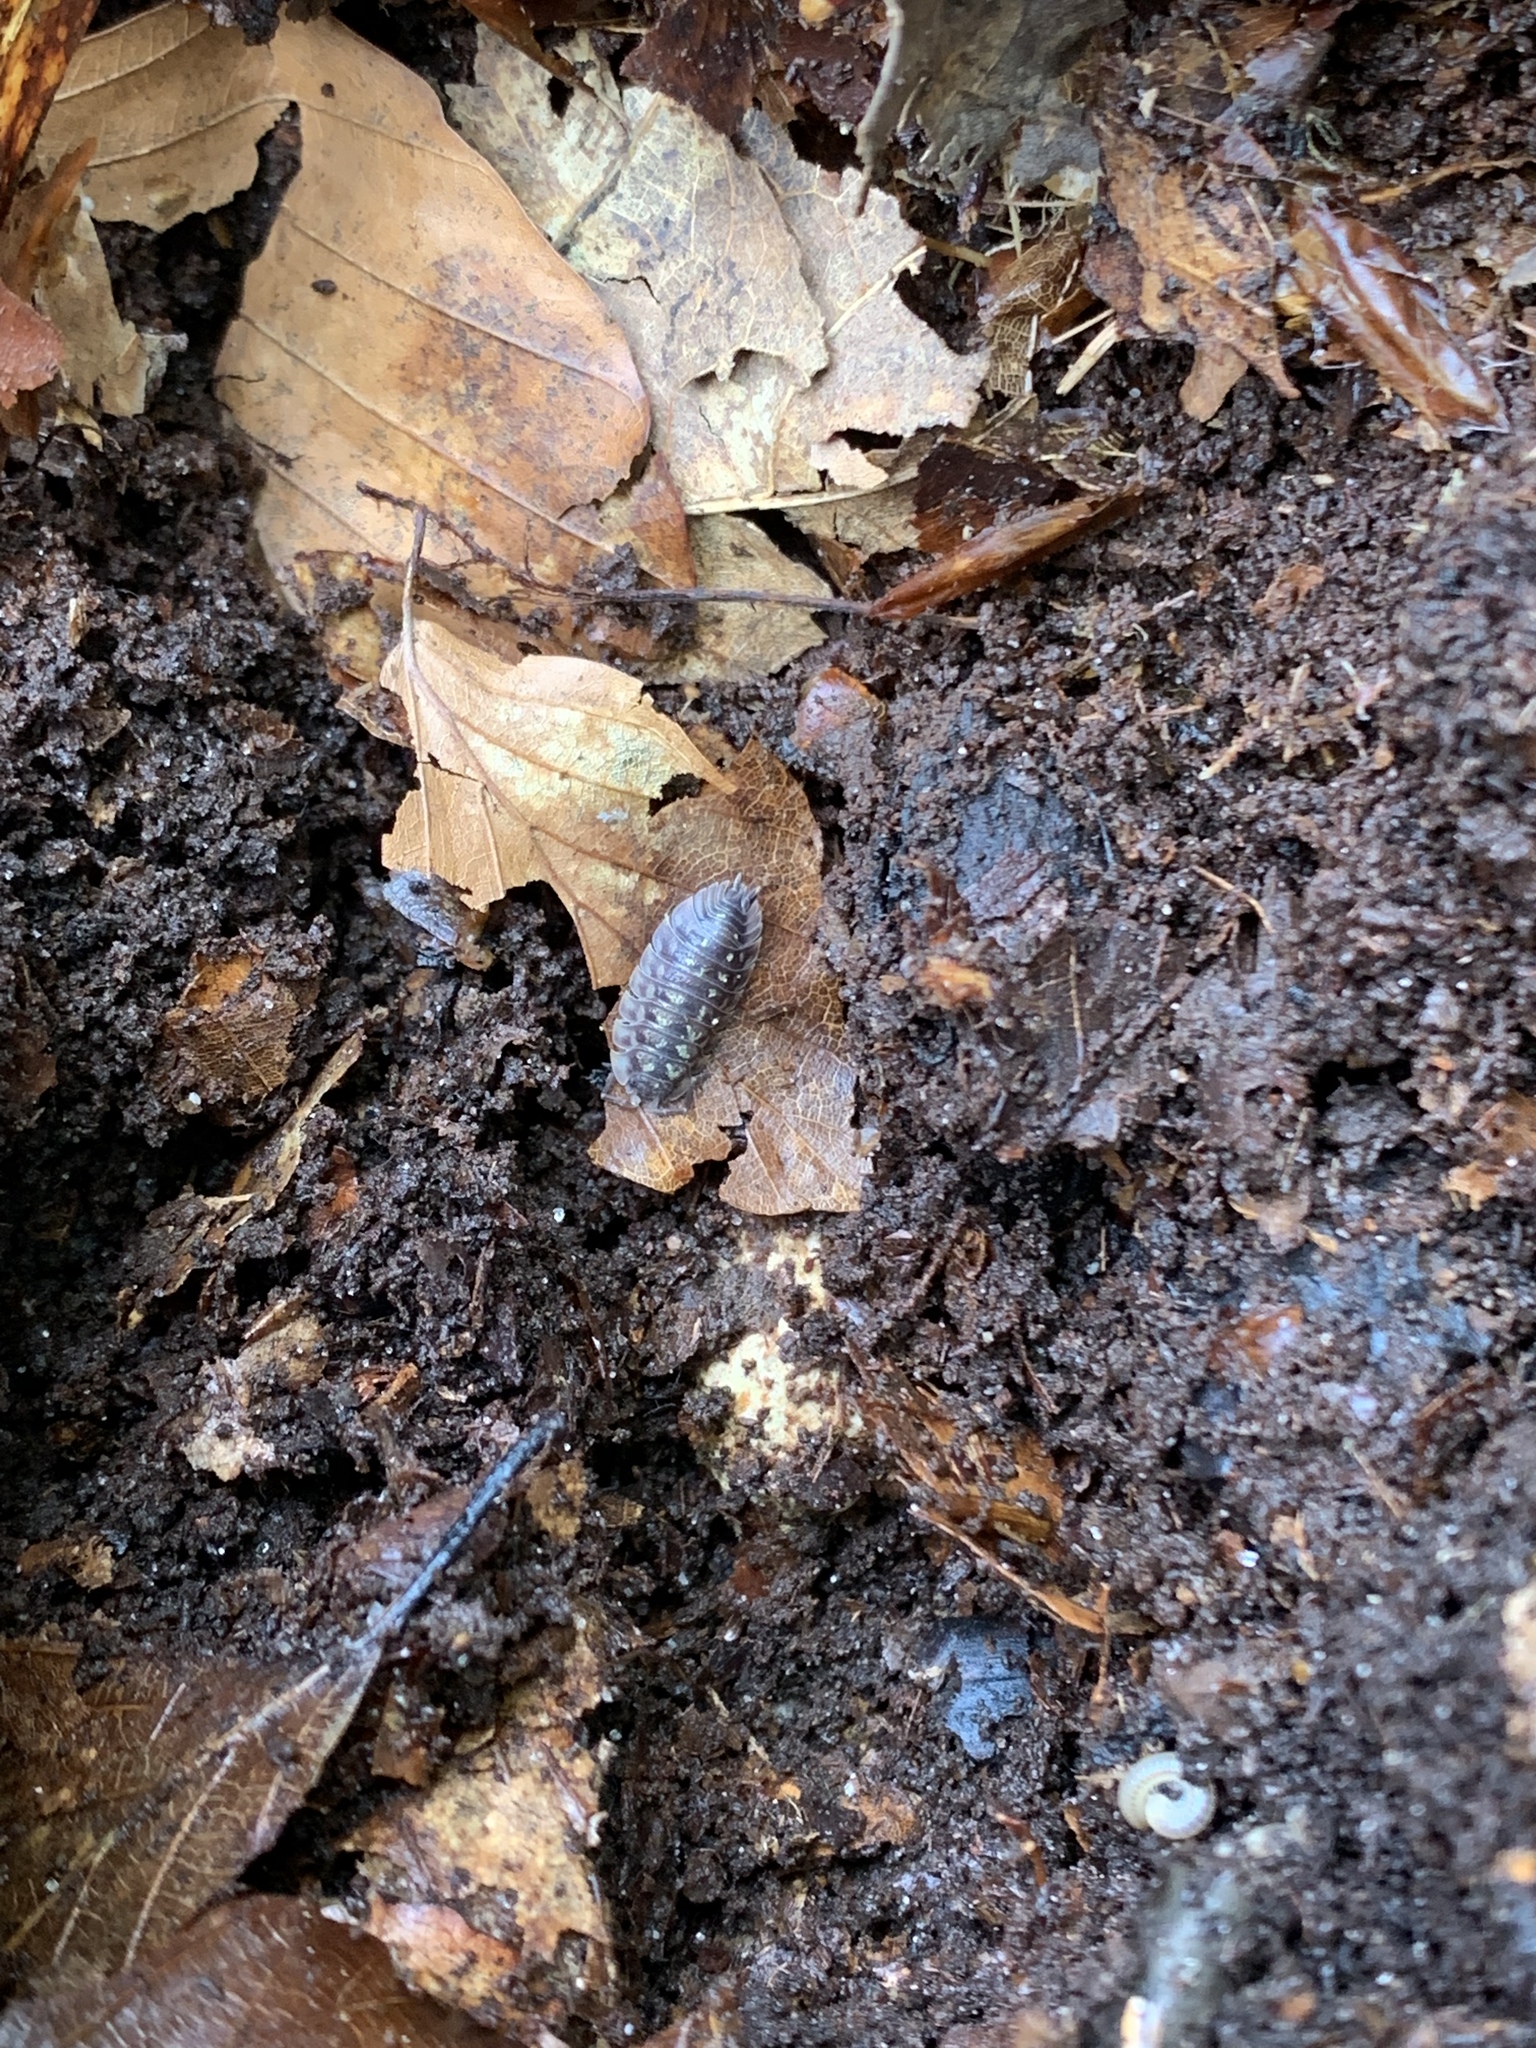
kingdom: Animalia
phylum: Arthropoda
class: Malacostraca
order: Isopoda
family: Oniscidae
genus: Oniscus
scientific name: Oniscus asellus
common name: Common shiny woodlouse
